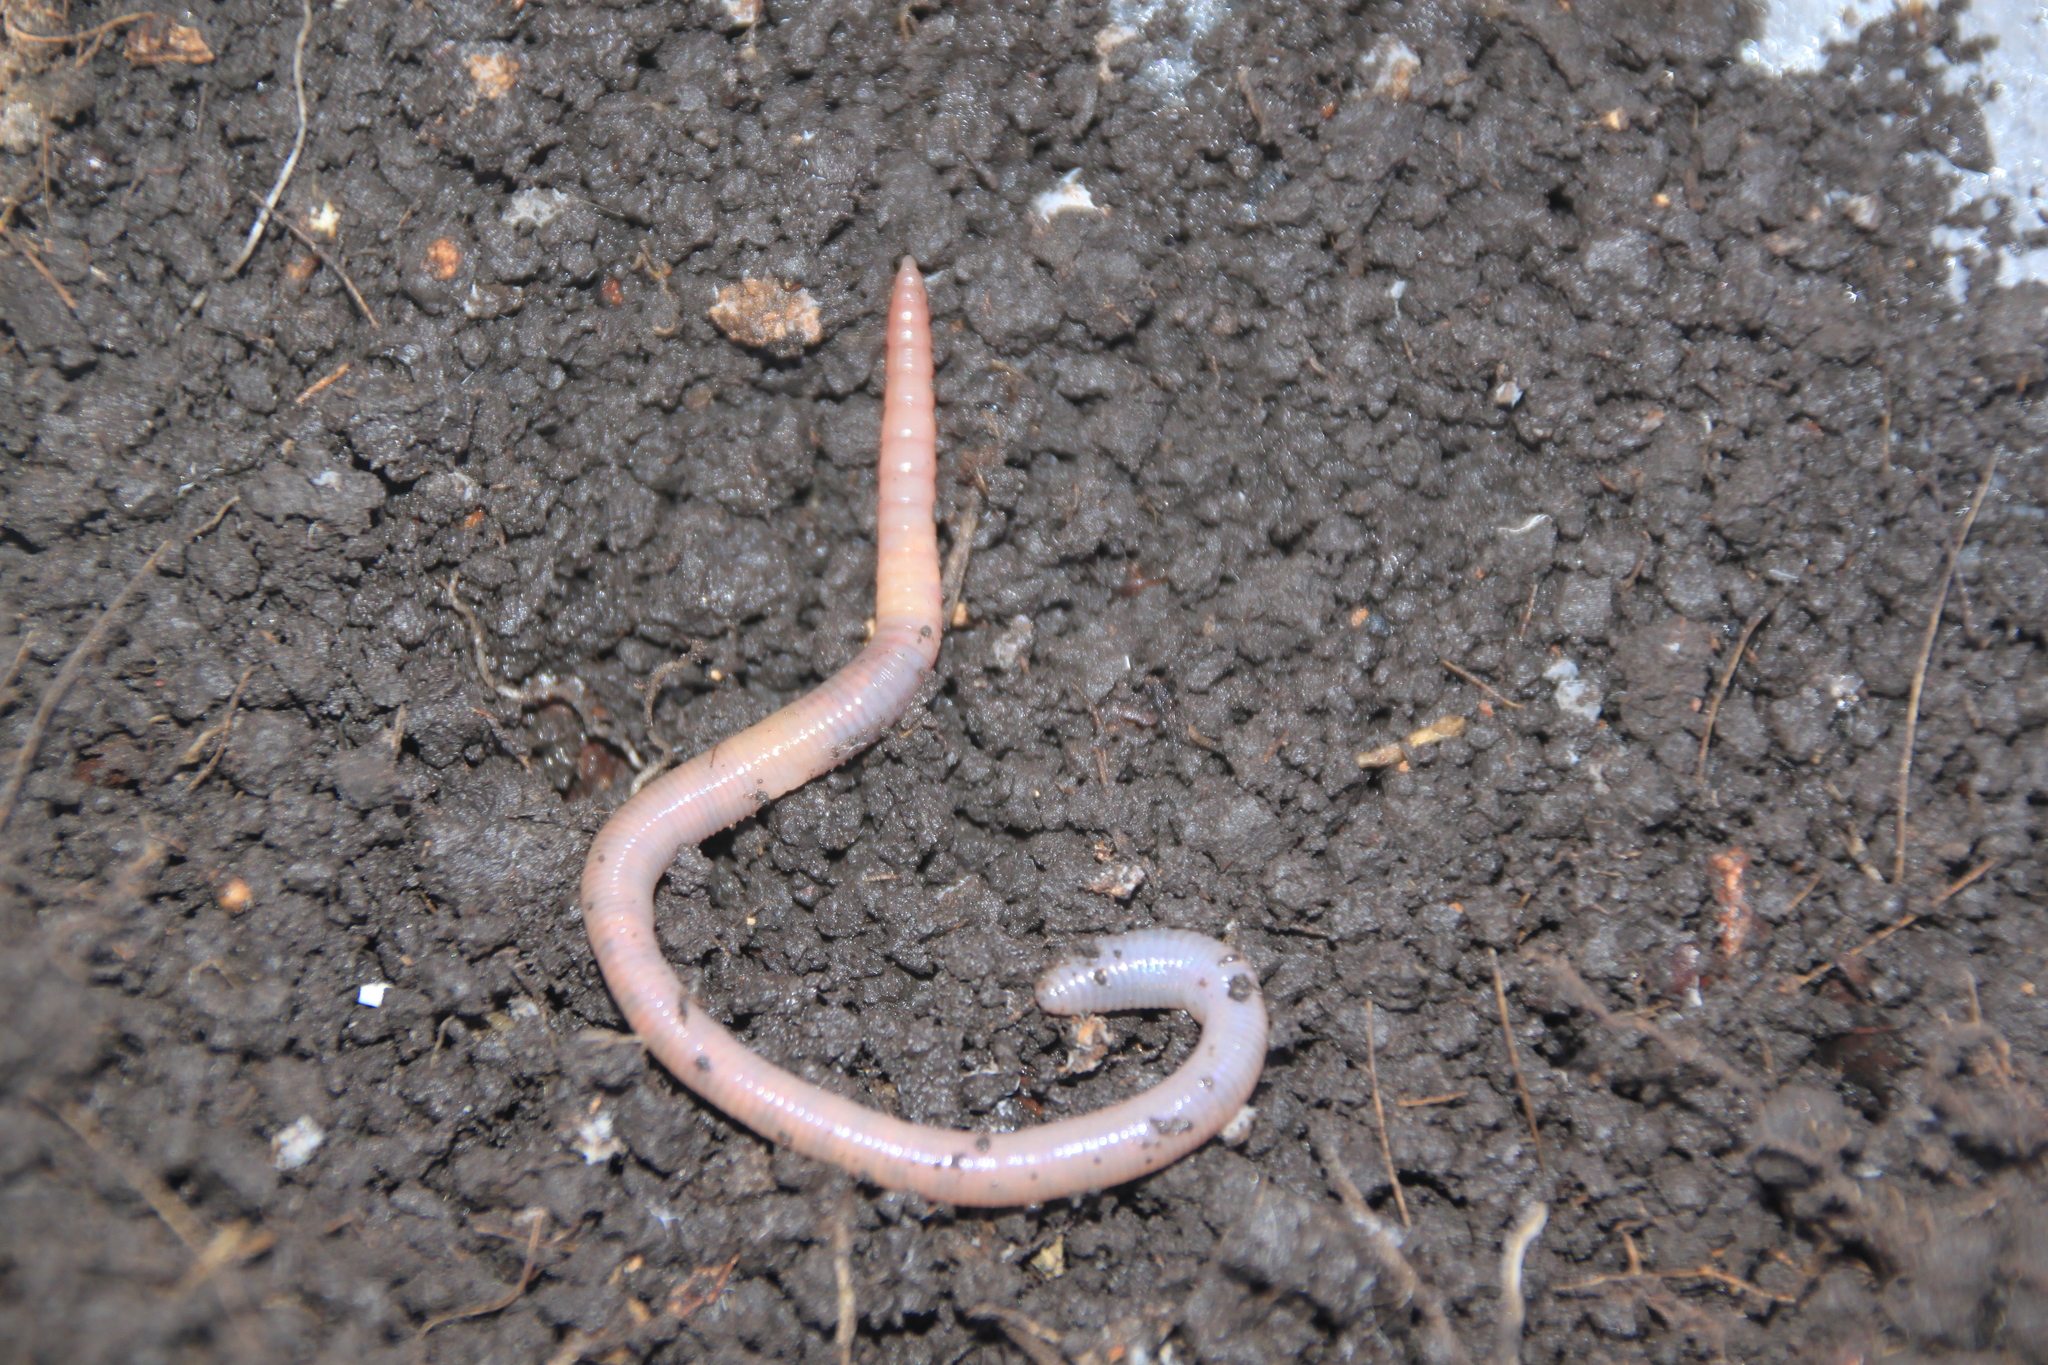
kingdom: Animalia
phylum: Annelida
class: Clitellata
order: Crassiclitellata
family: Lumbricidae
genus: Aporrectodea
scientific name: Aporrectodea caliginosa
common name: Grey worm
